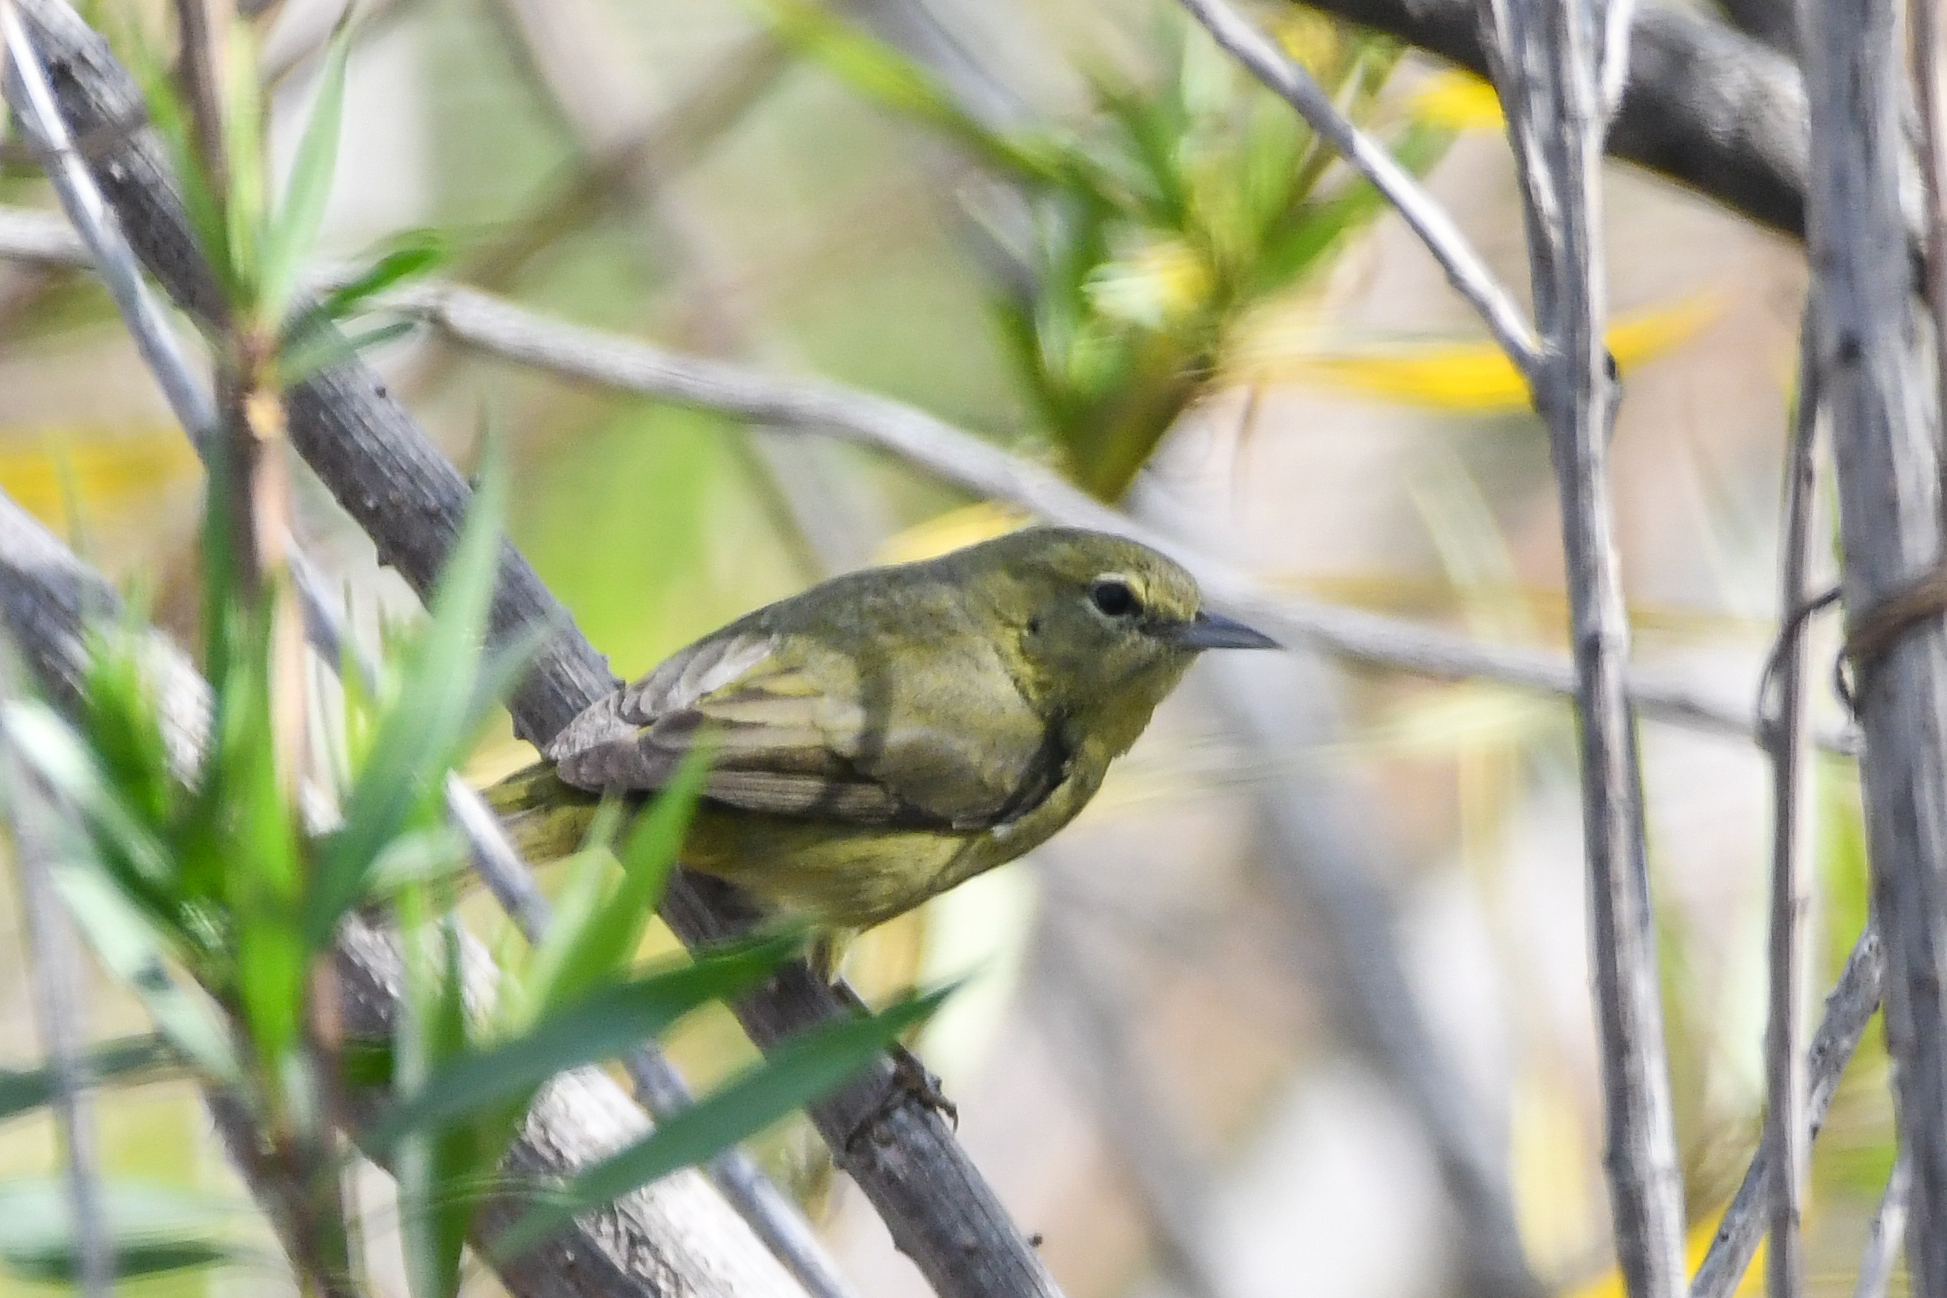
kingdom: Animalia
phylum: Chordata
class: Aves
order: Passeriformes
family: Parulidae
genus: Leiothlypis
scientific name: Leiothlypis celata
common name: Orange-crowned warbler
